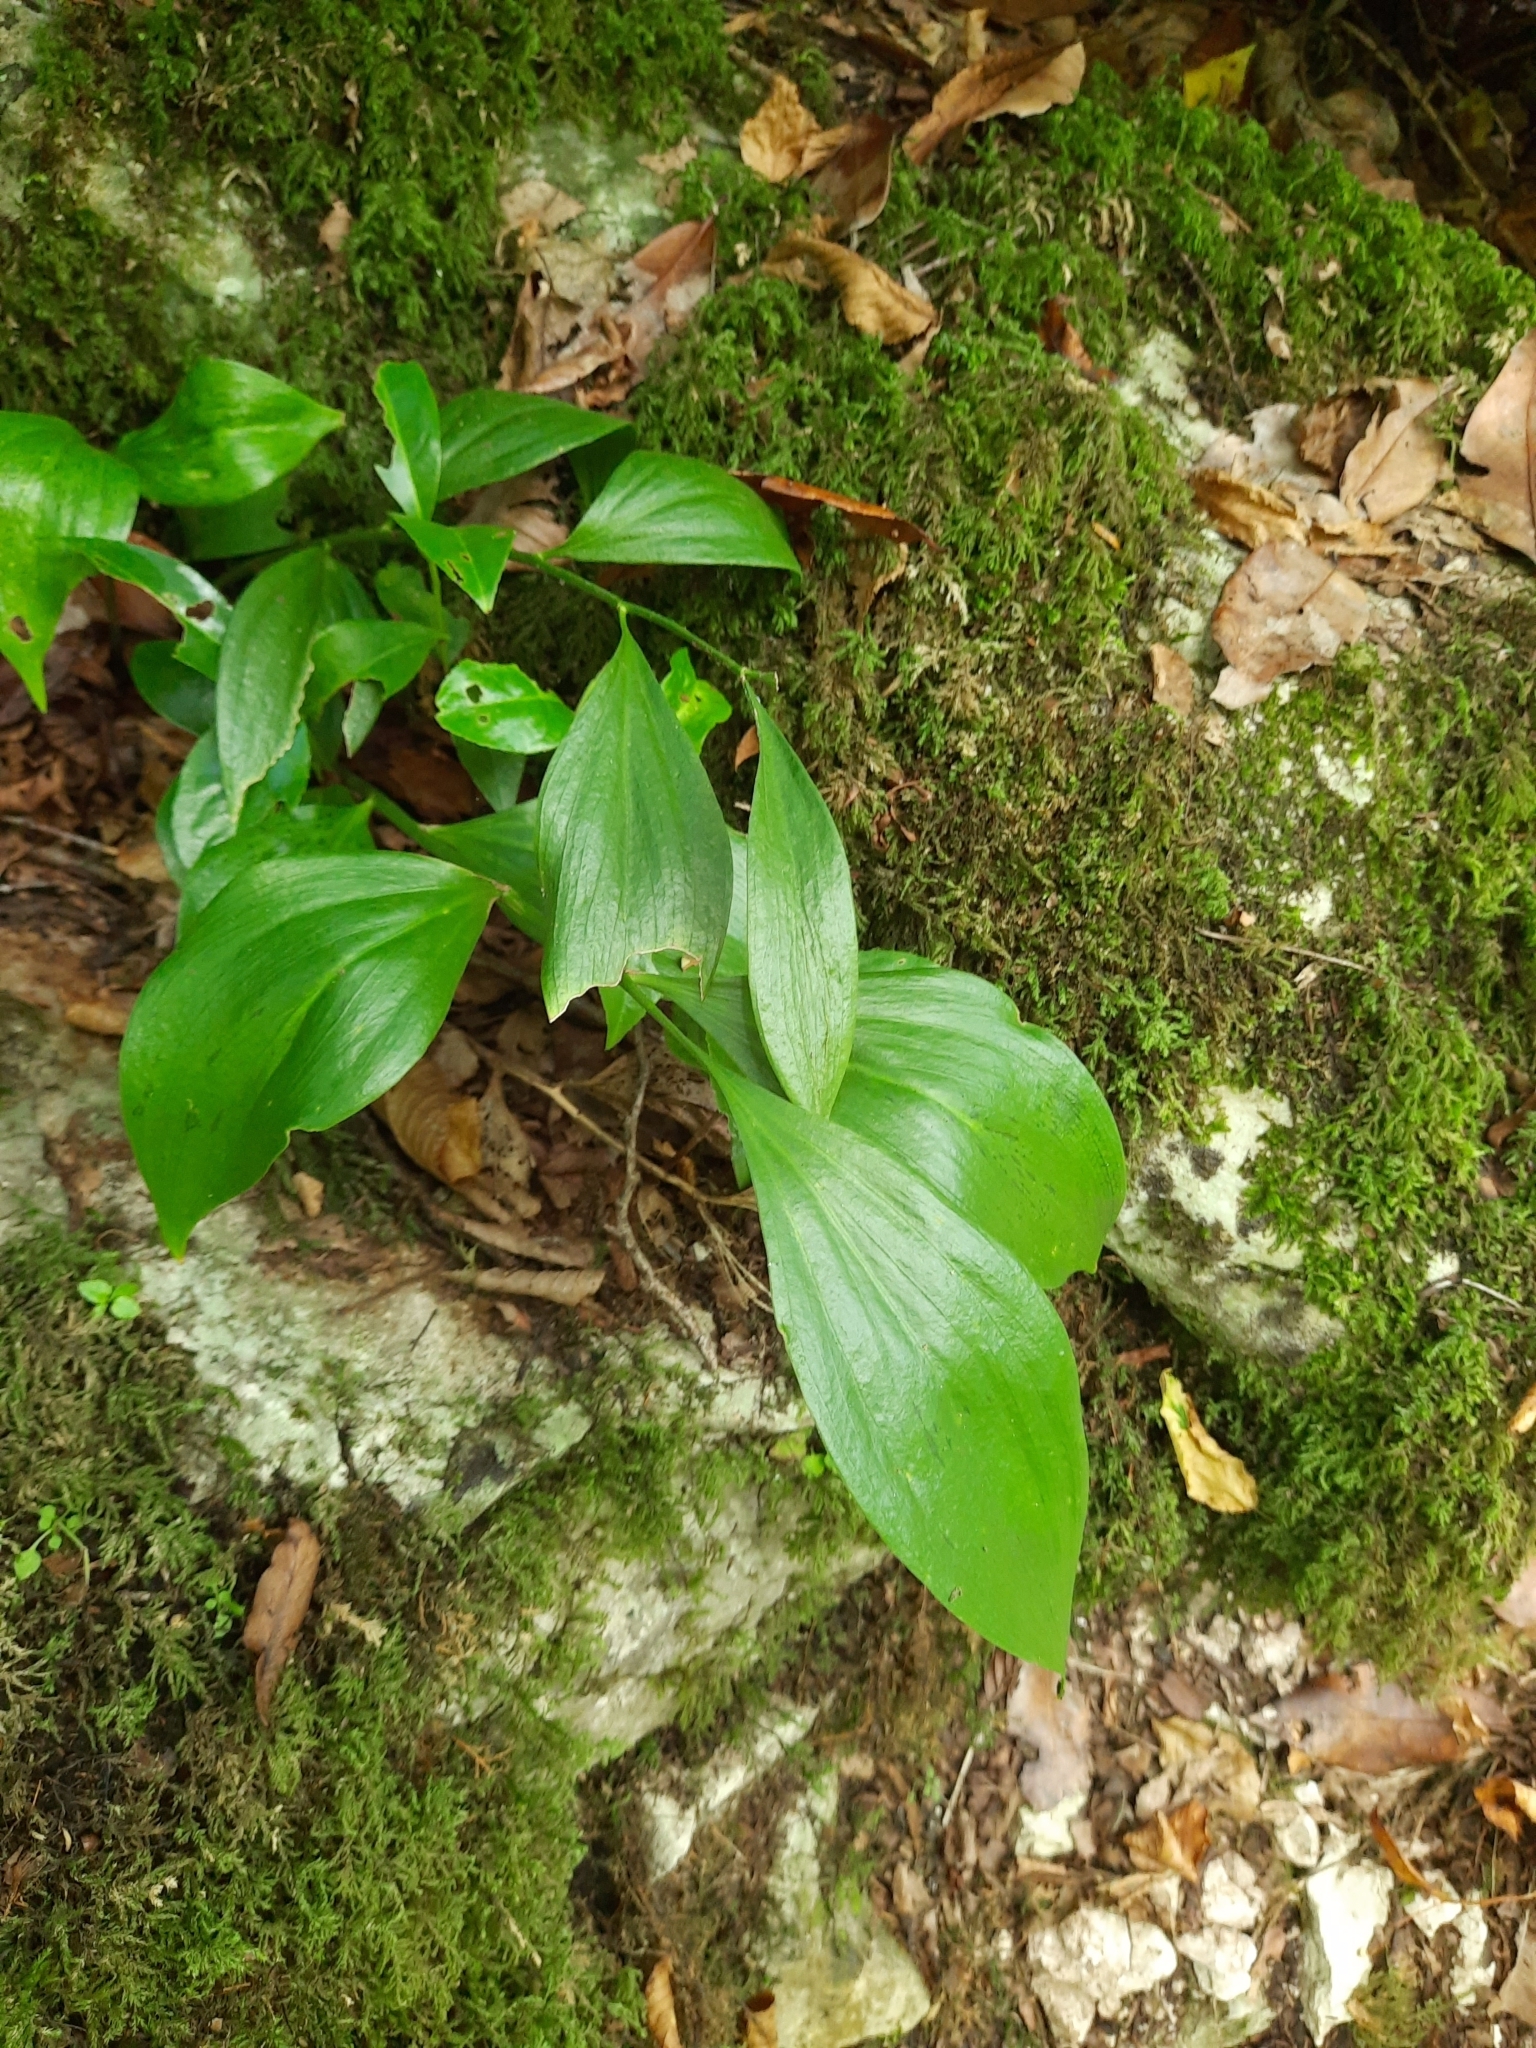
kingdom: Plantae
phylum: Tracheophyta
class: Liliopsida
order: Asparagales
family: Asparagaceae
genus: Ruscus
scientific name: Ruscus colchicus
